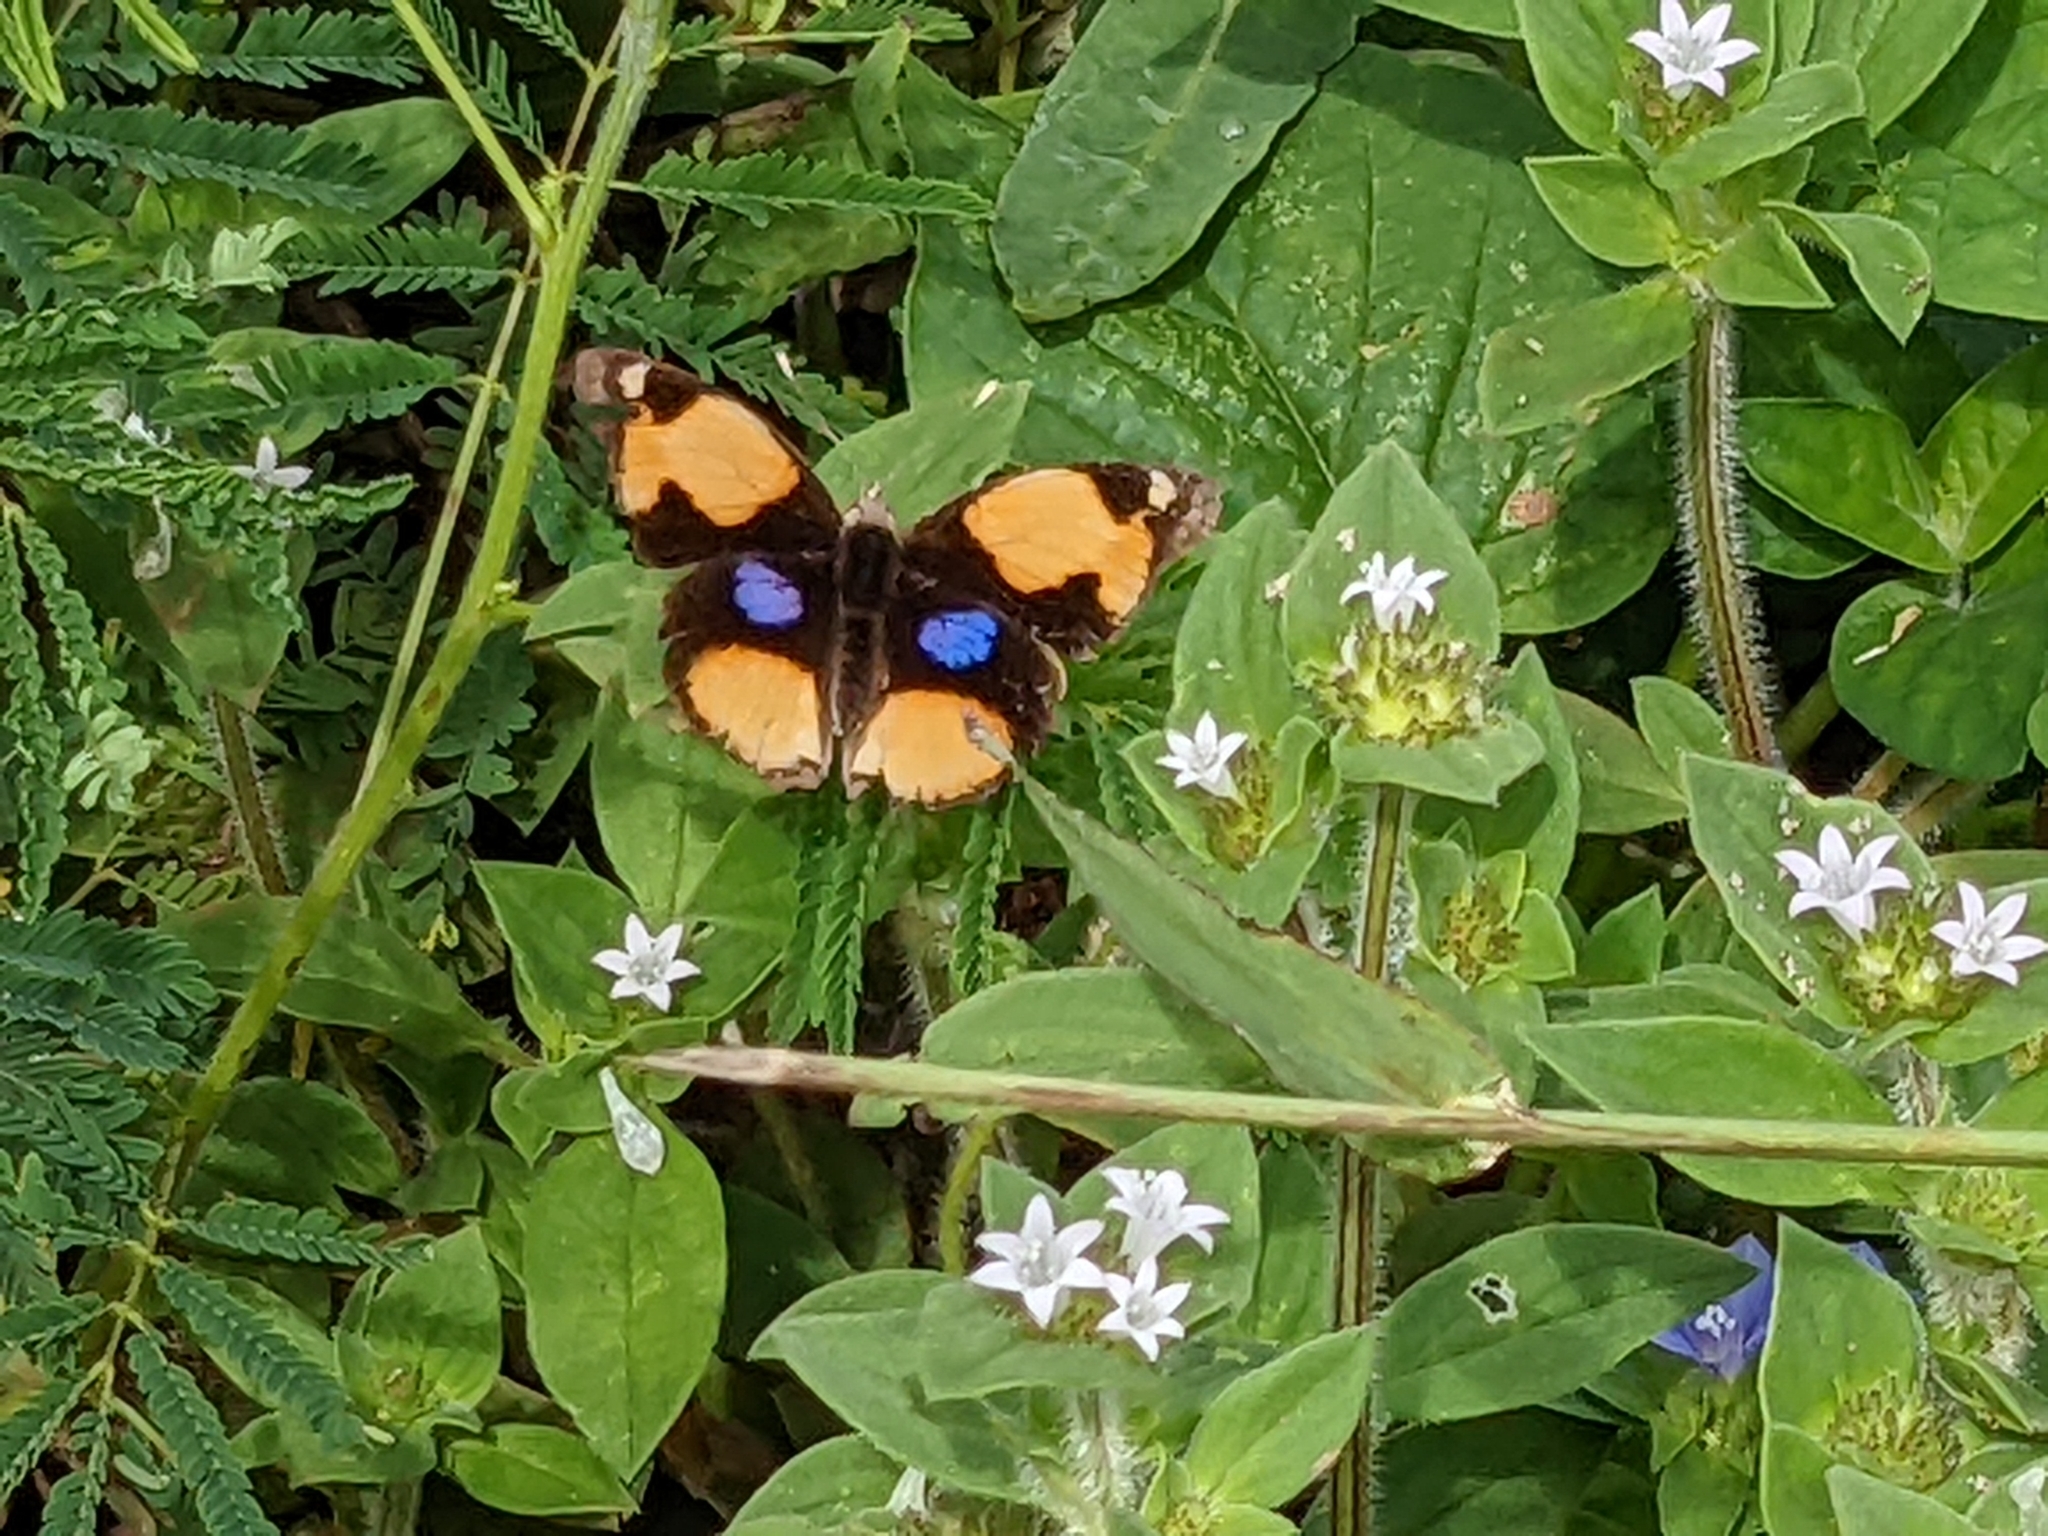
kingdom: Animalia
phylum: Arthropoda
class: Insecta
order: Lepidoptera
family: Nymphalidae
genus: Junonia
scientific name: Junonia hierta
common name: Yellow pansy
